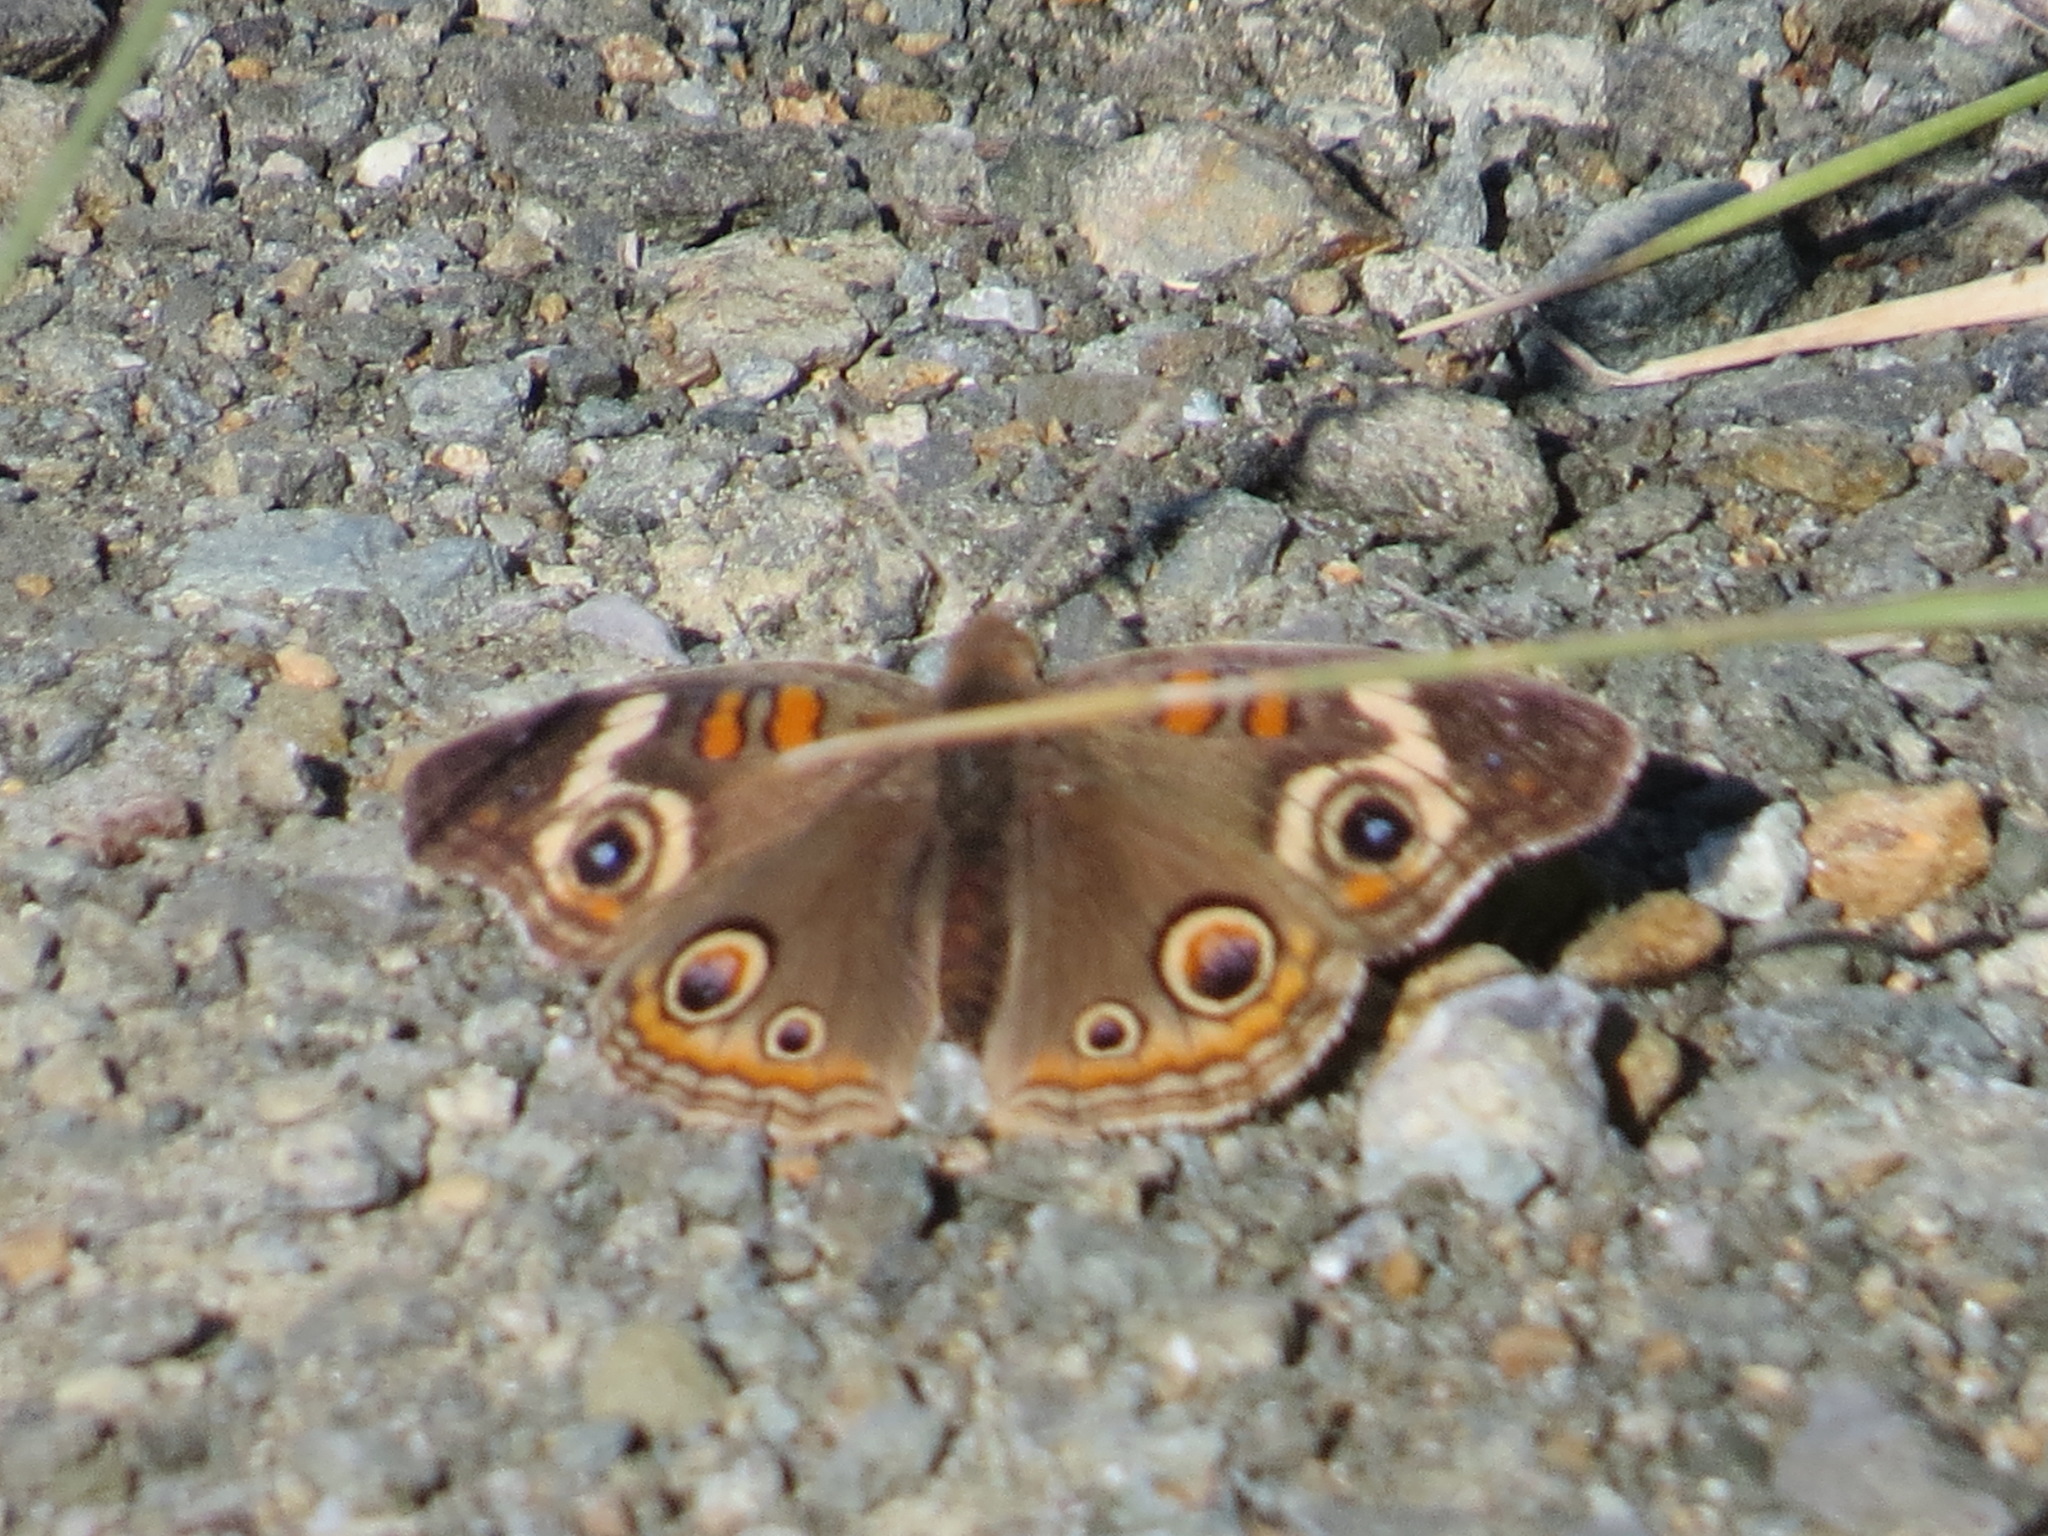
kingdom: Animalia
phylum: Arthropoda
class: Insecta
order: Lepidoptera
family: Nymphalidae
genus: Junonia
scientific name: Junonia grisea
